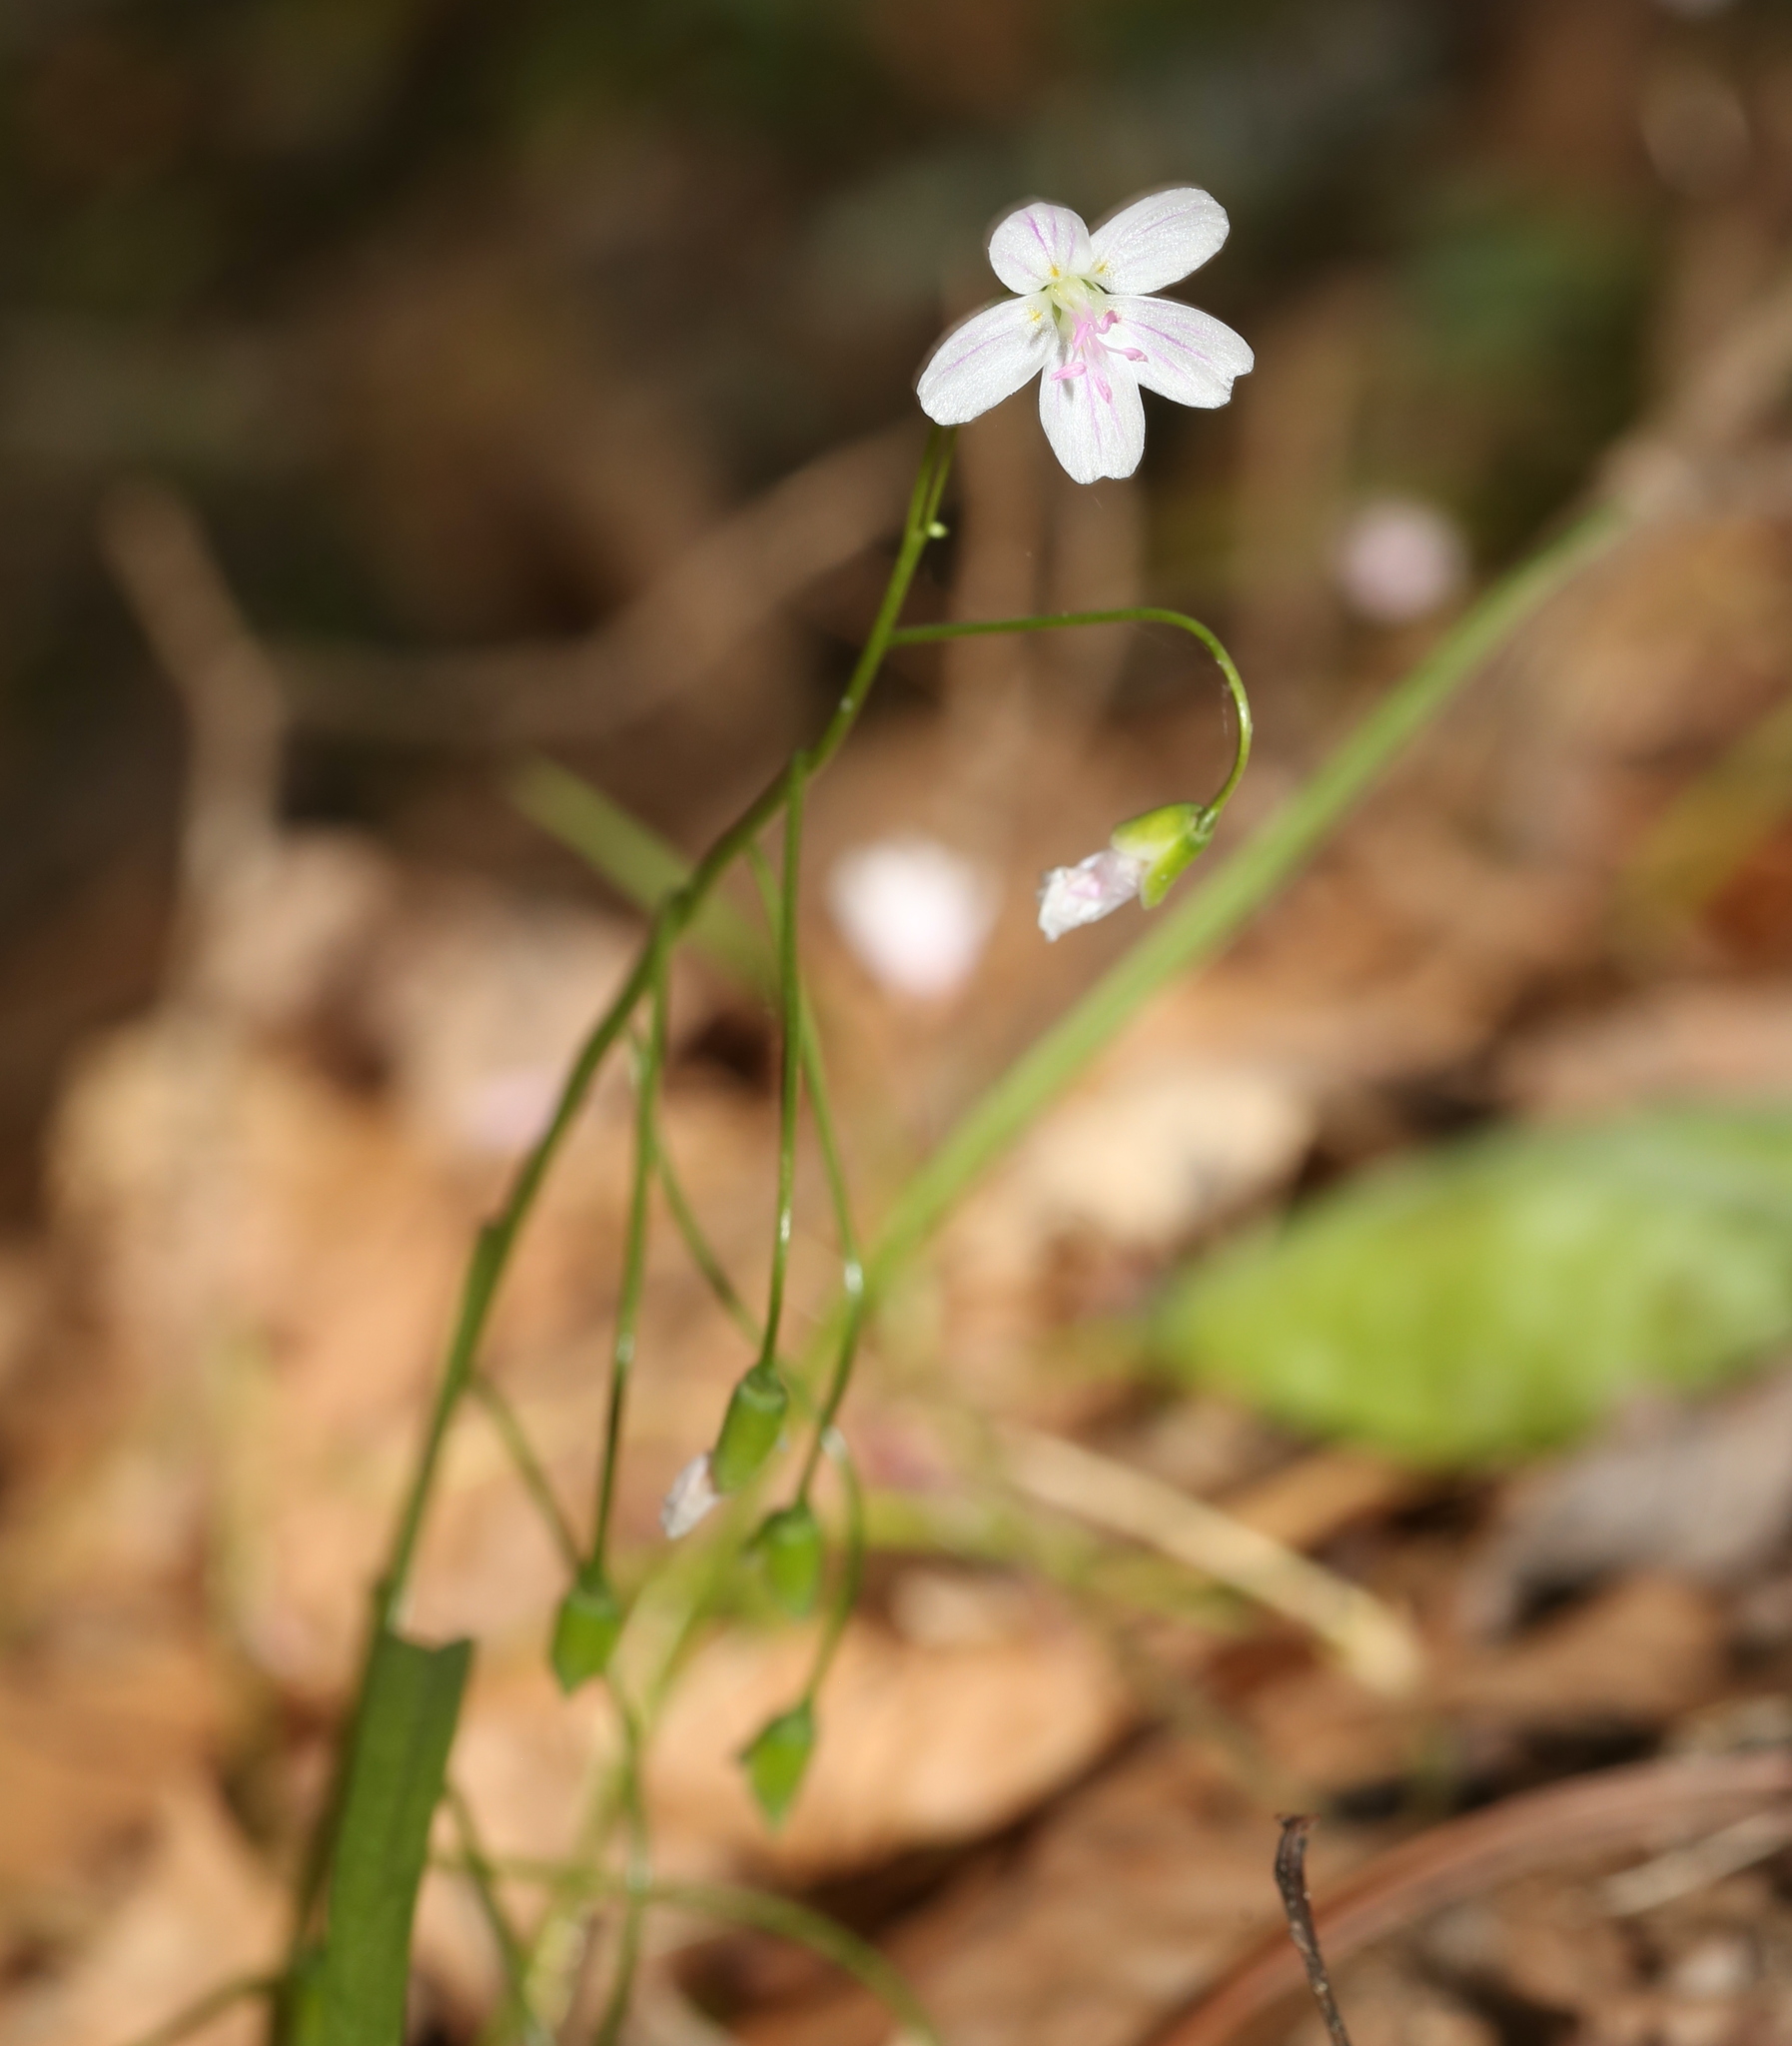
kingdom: Plantae
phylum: Tracheophyta
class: Magnoliopsida
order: Caryophyllales
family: Montiaceae
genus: Claytonia
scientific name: Claytonia virginica
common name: Virginia springbeauty
